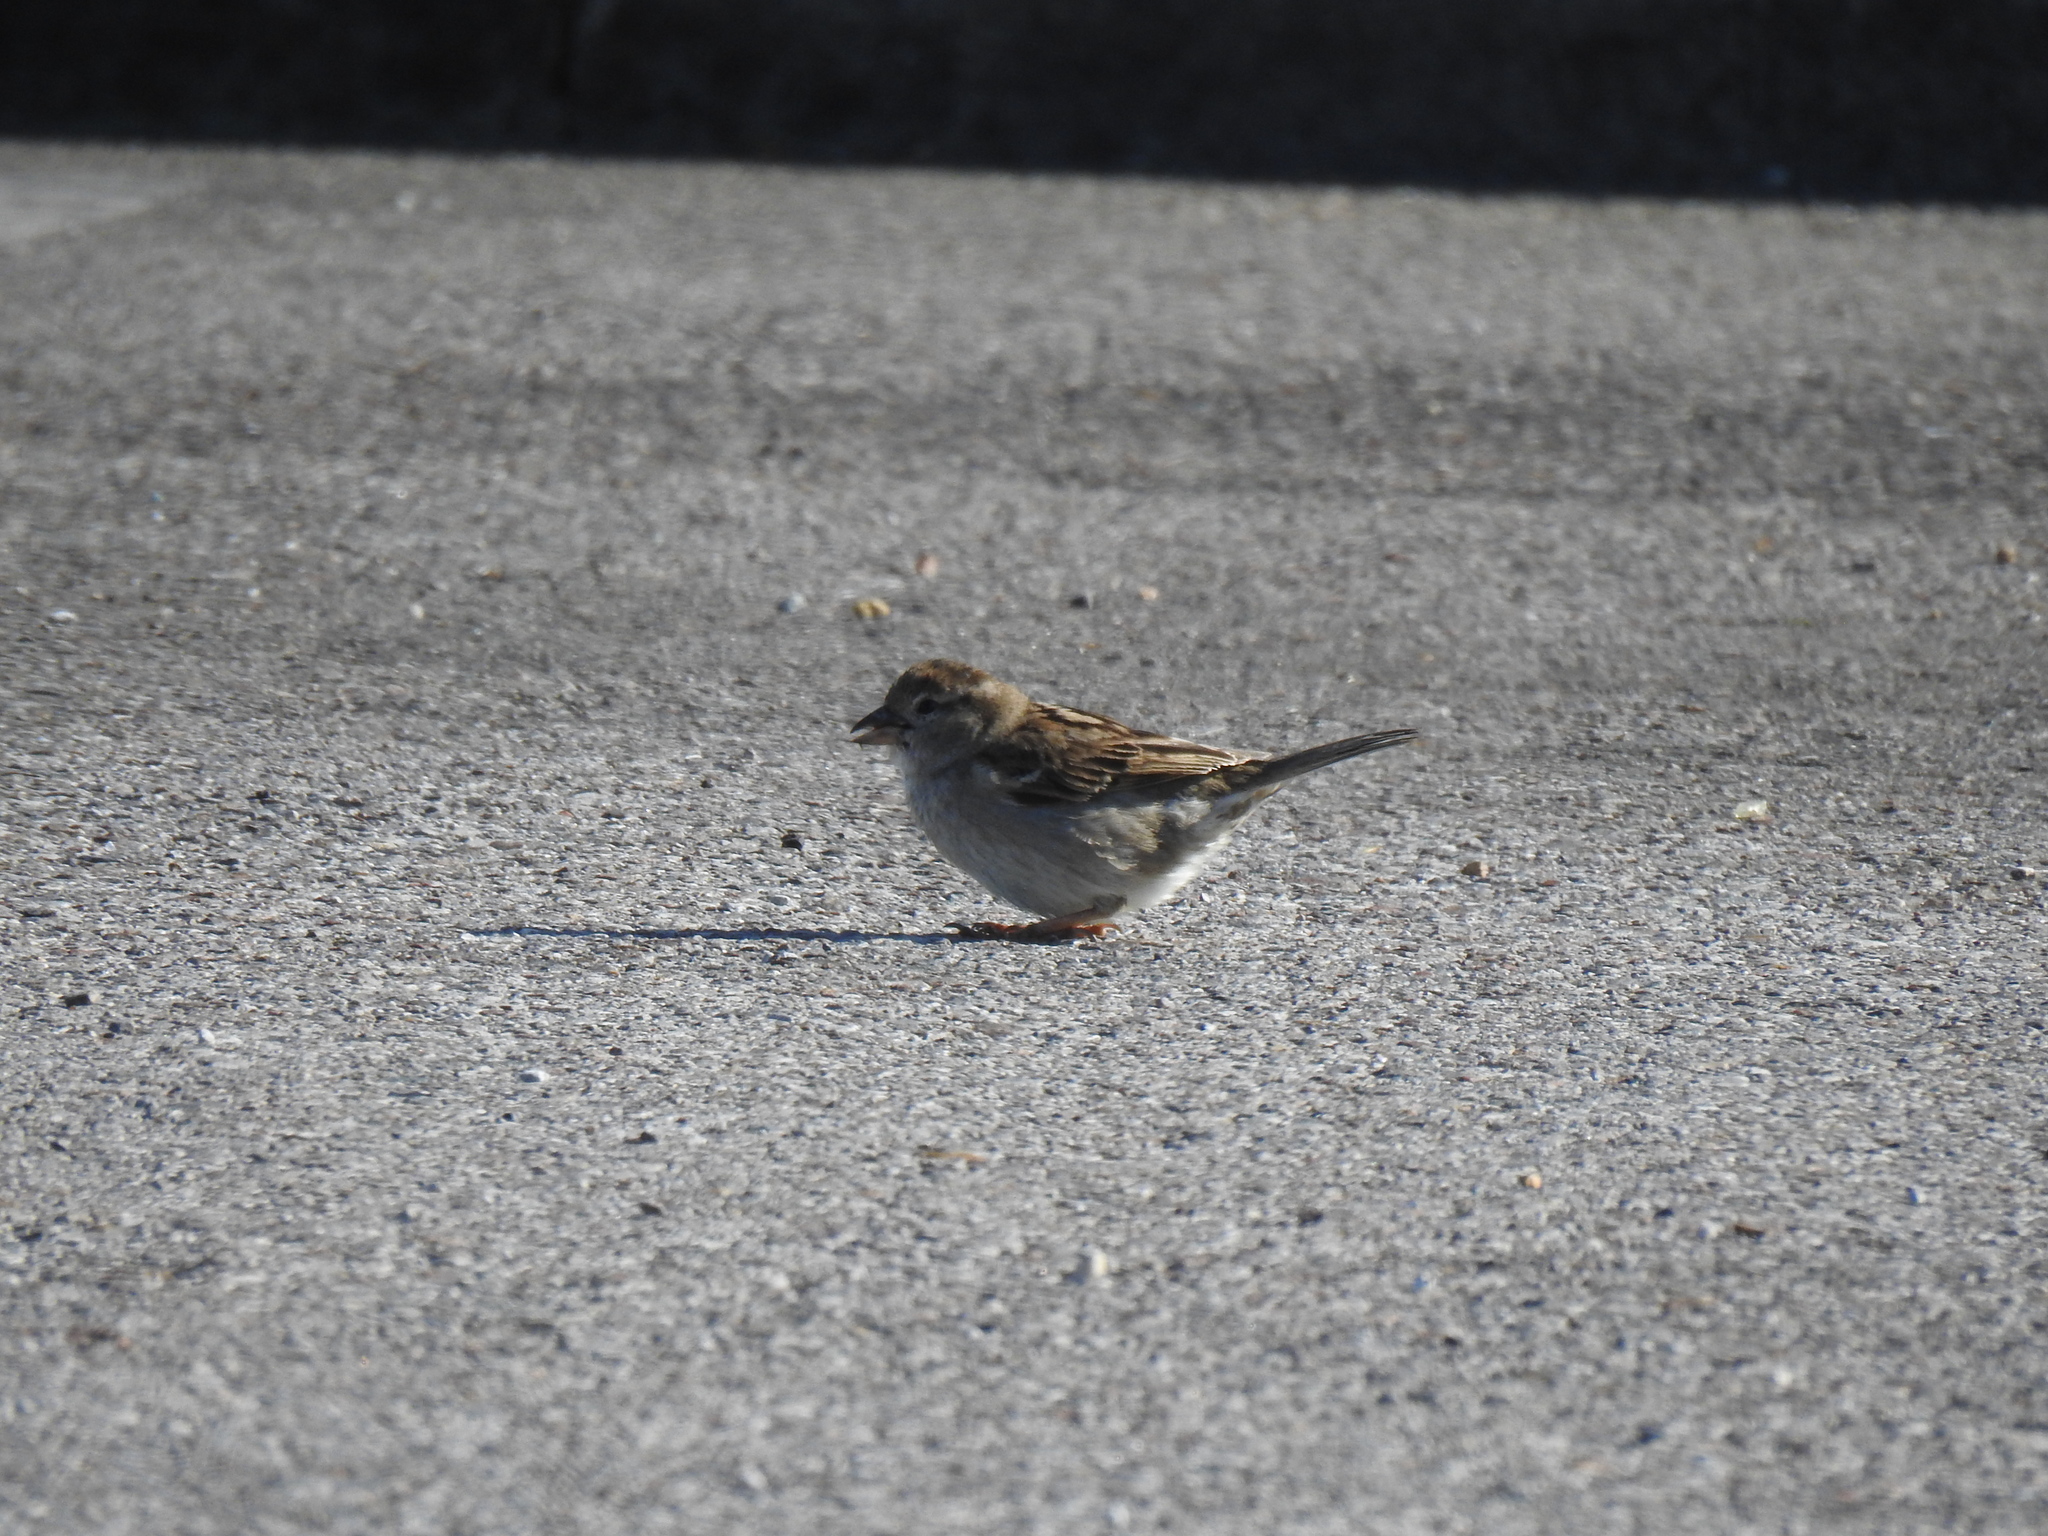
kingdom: Animalia
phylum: Chordata
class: Aves
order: Passeriformes
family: Passeridae
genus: Passer
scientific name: Passer domesticus
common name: House sparrow
